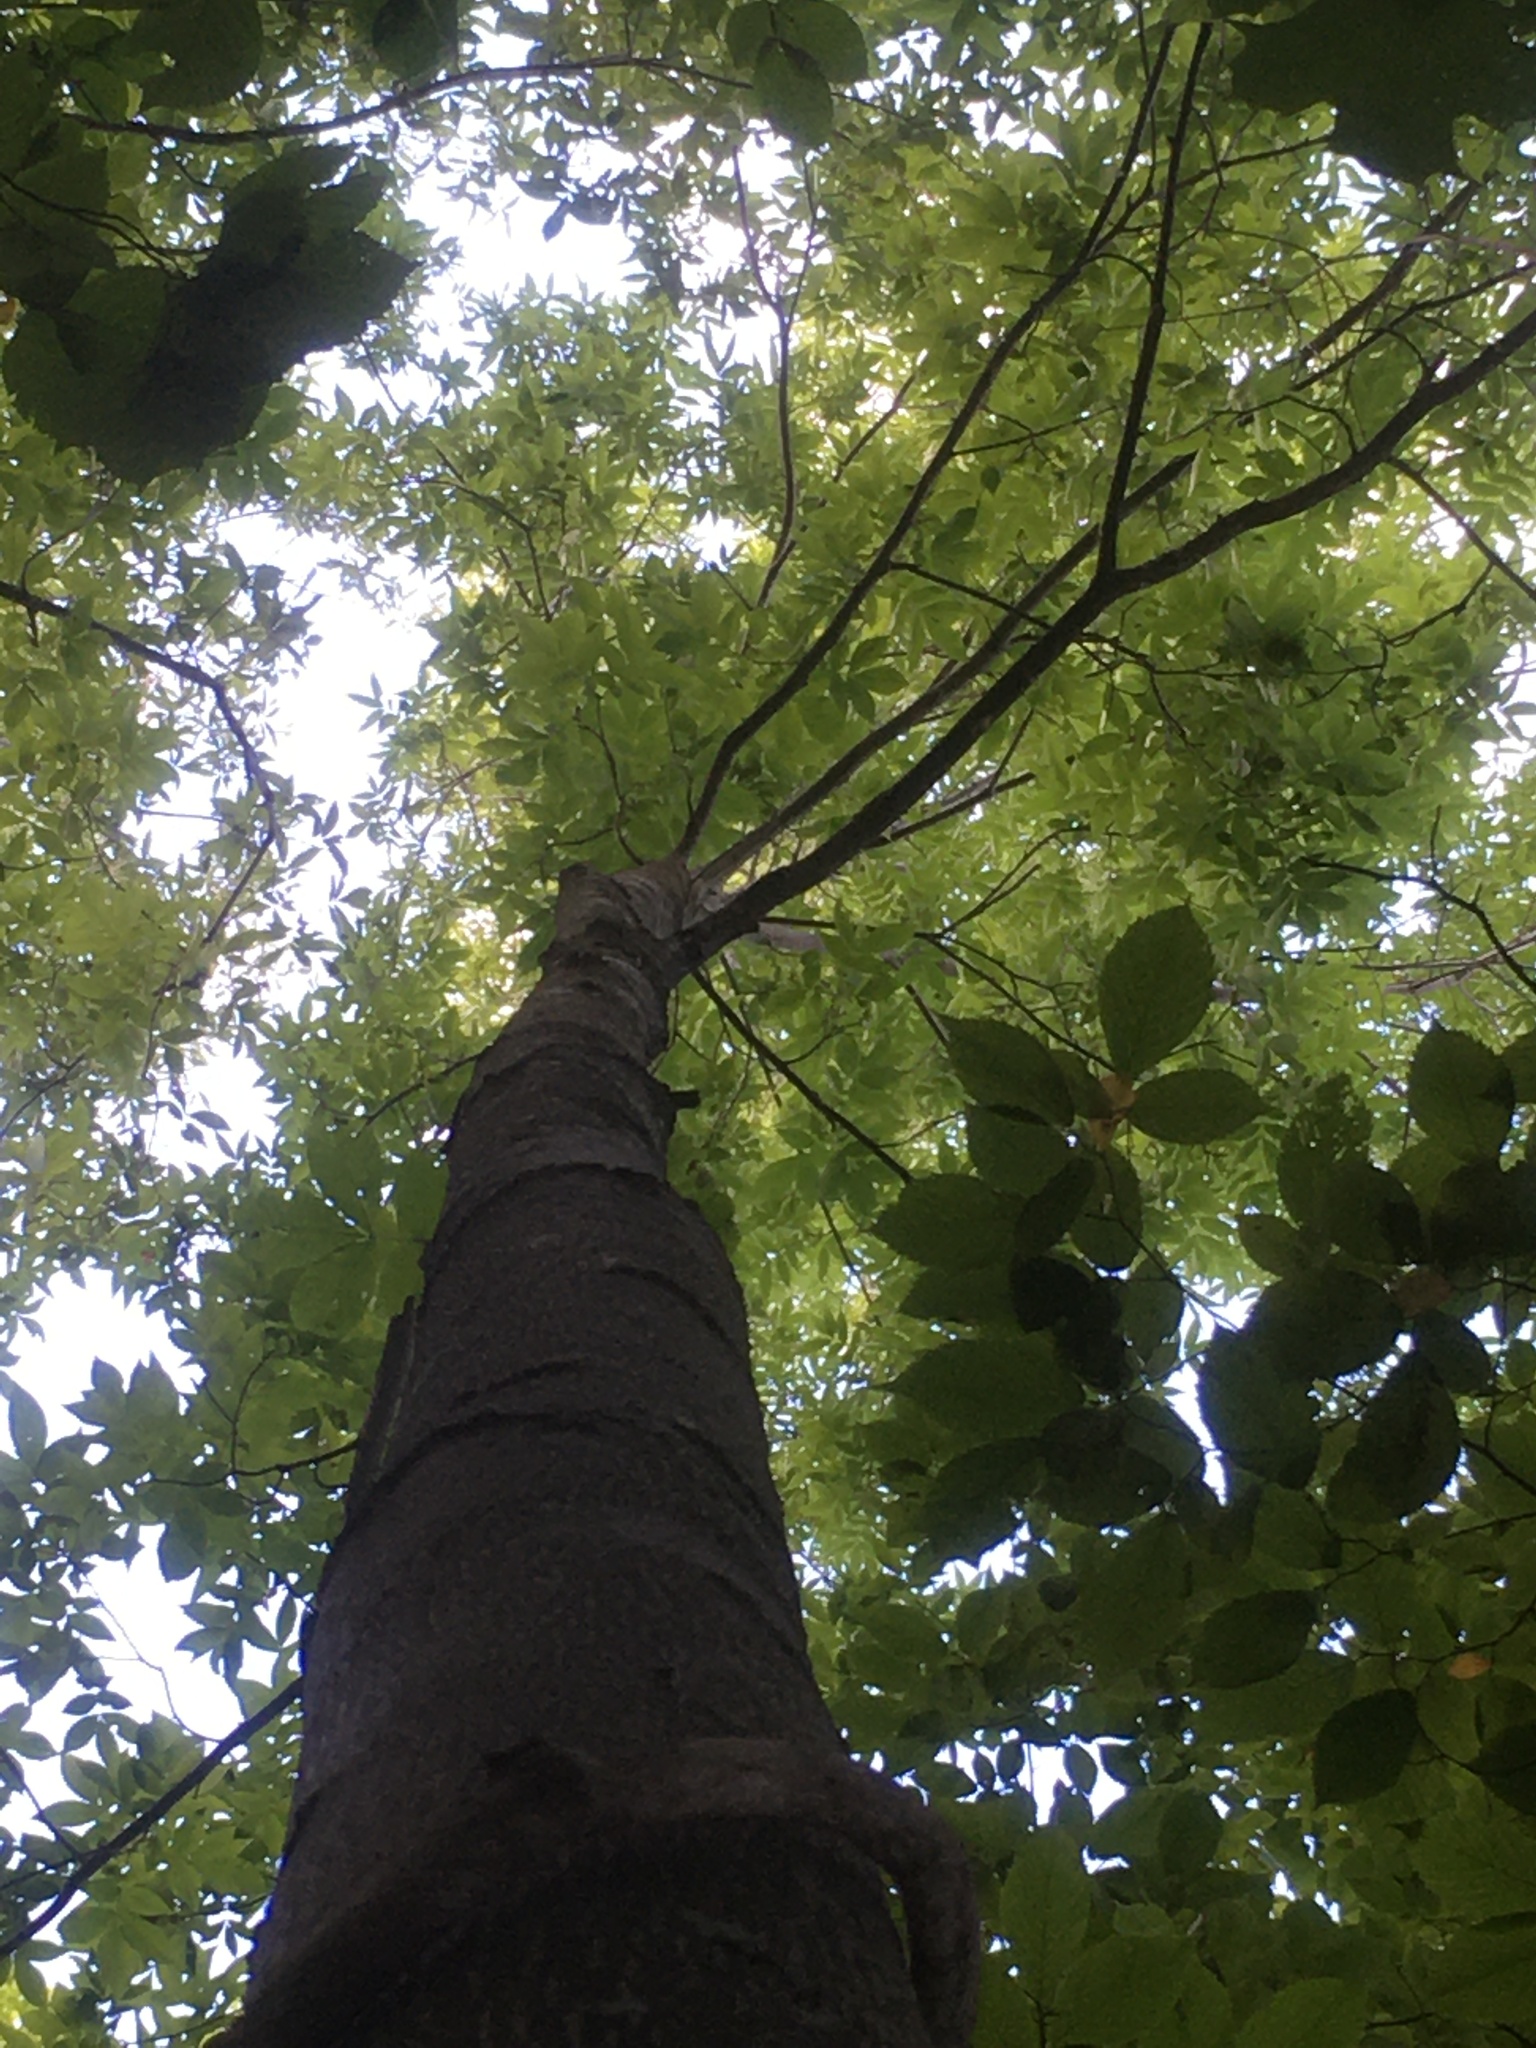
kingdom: Plantae
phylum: Tracheophyta
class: Magnoliopsida
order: Fagales
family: Juglandaceae
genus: Carya
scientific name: Carya cordiformis
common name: Bitternut hickory
